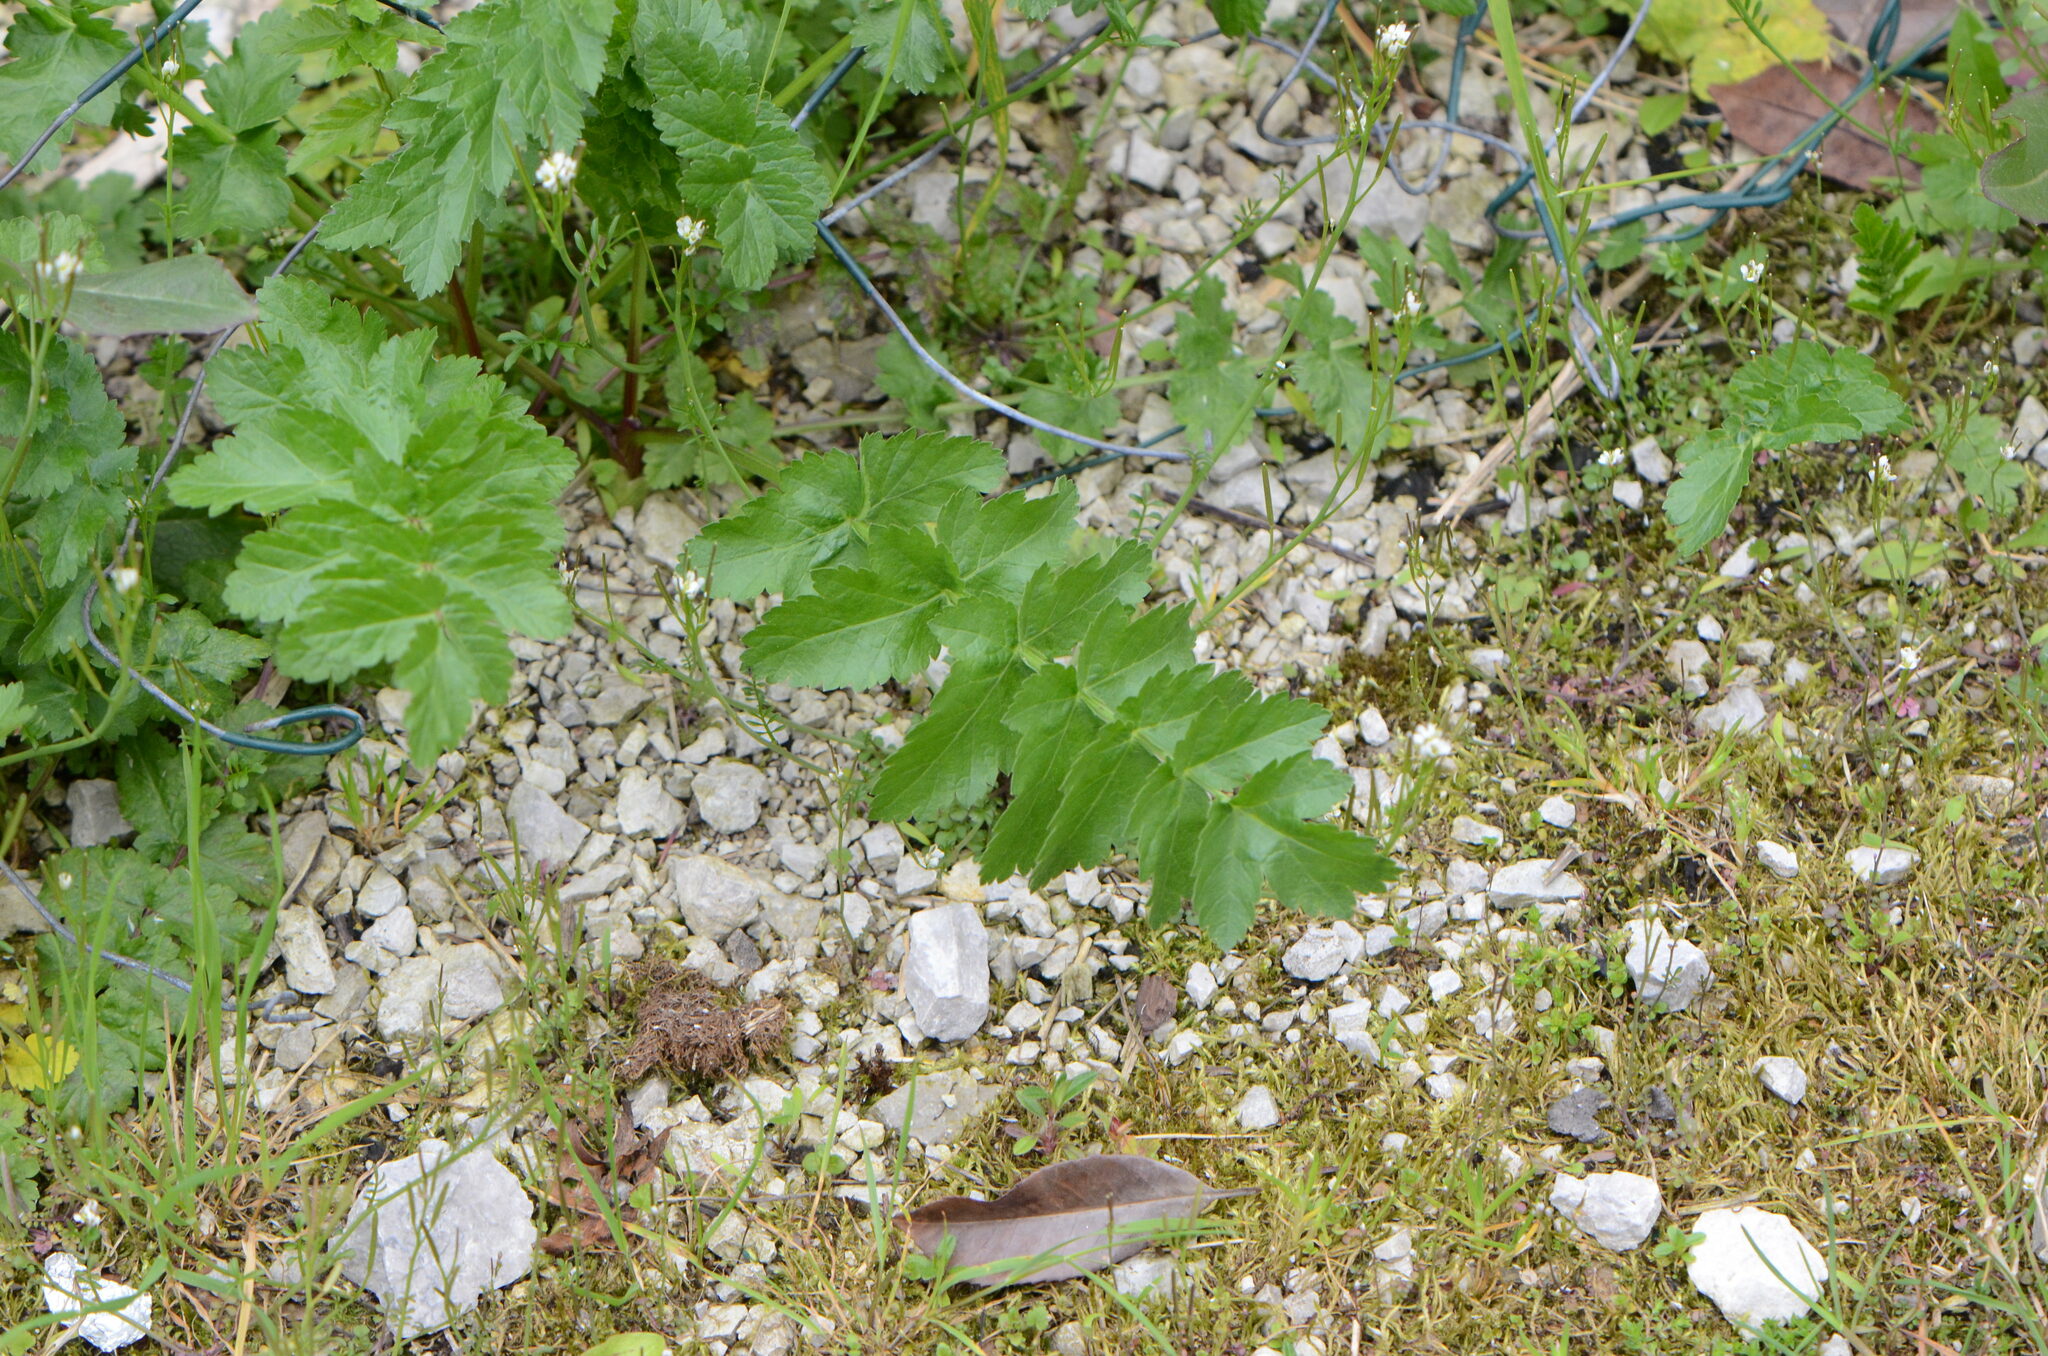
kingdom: Plantae
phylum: Tracheophyta
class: Magnoliopsida
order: Apiales
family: Apiaceae
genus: Pastinaca
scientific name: Pastinaca sativa
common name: Wild parsnip
